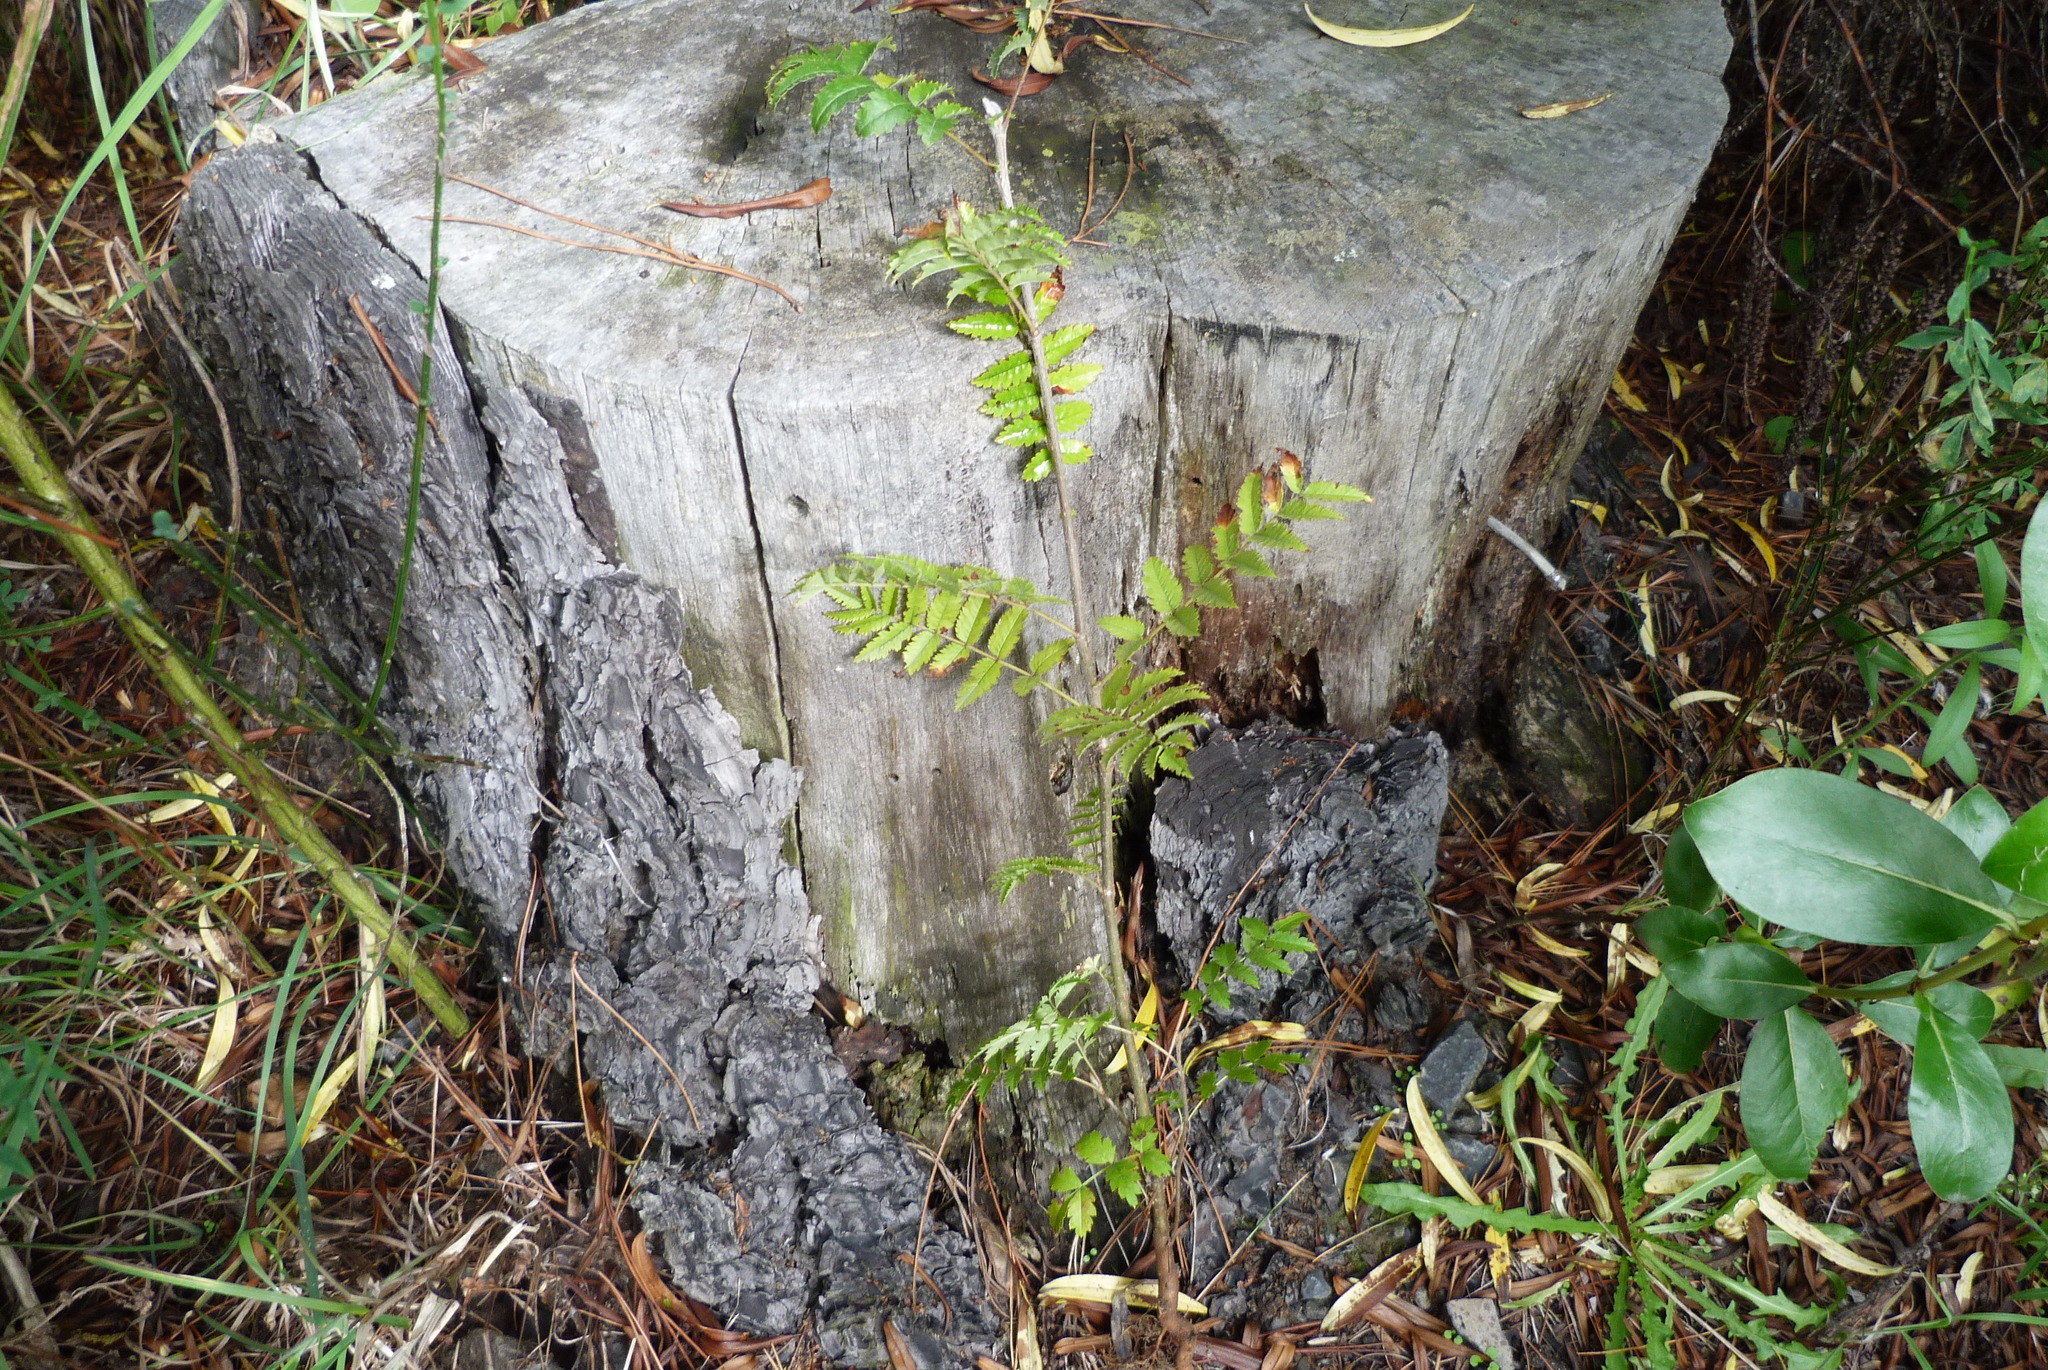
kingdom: Plantae
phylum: Tracheophyta
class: Magnoliopsida
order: Rosales
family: Rosaceae
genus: Sorbus
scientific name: Sorbus aucuparia
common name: Rowan
